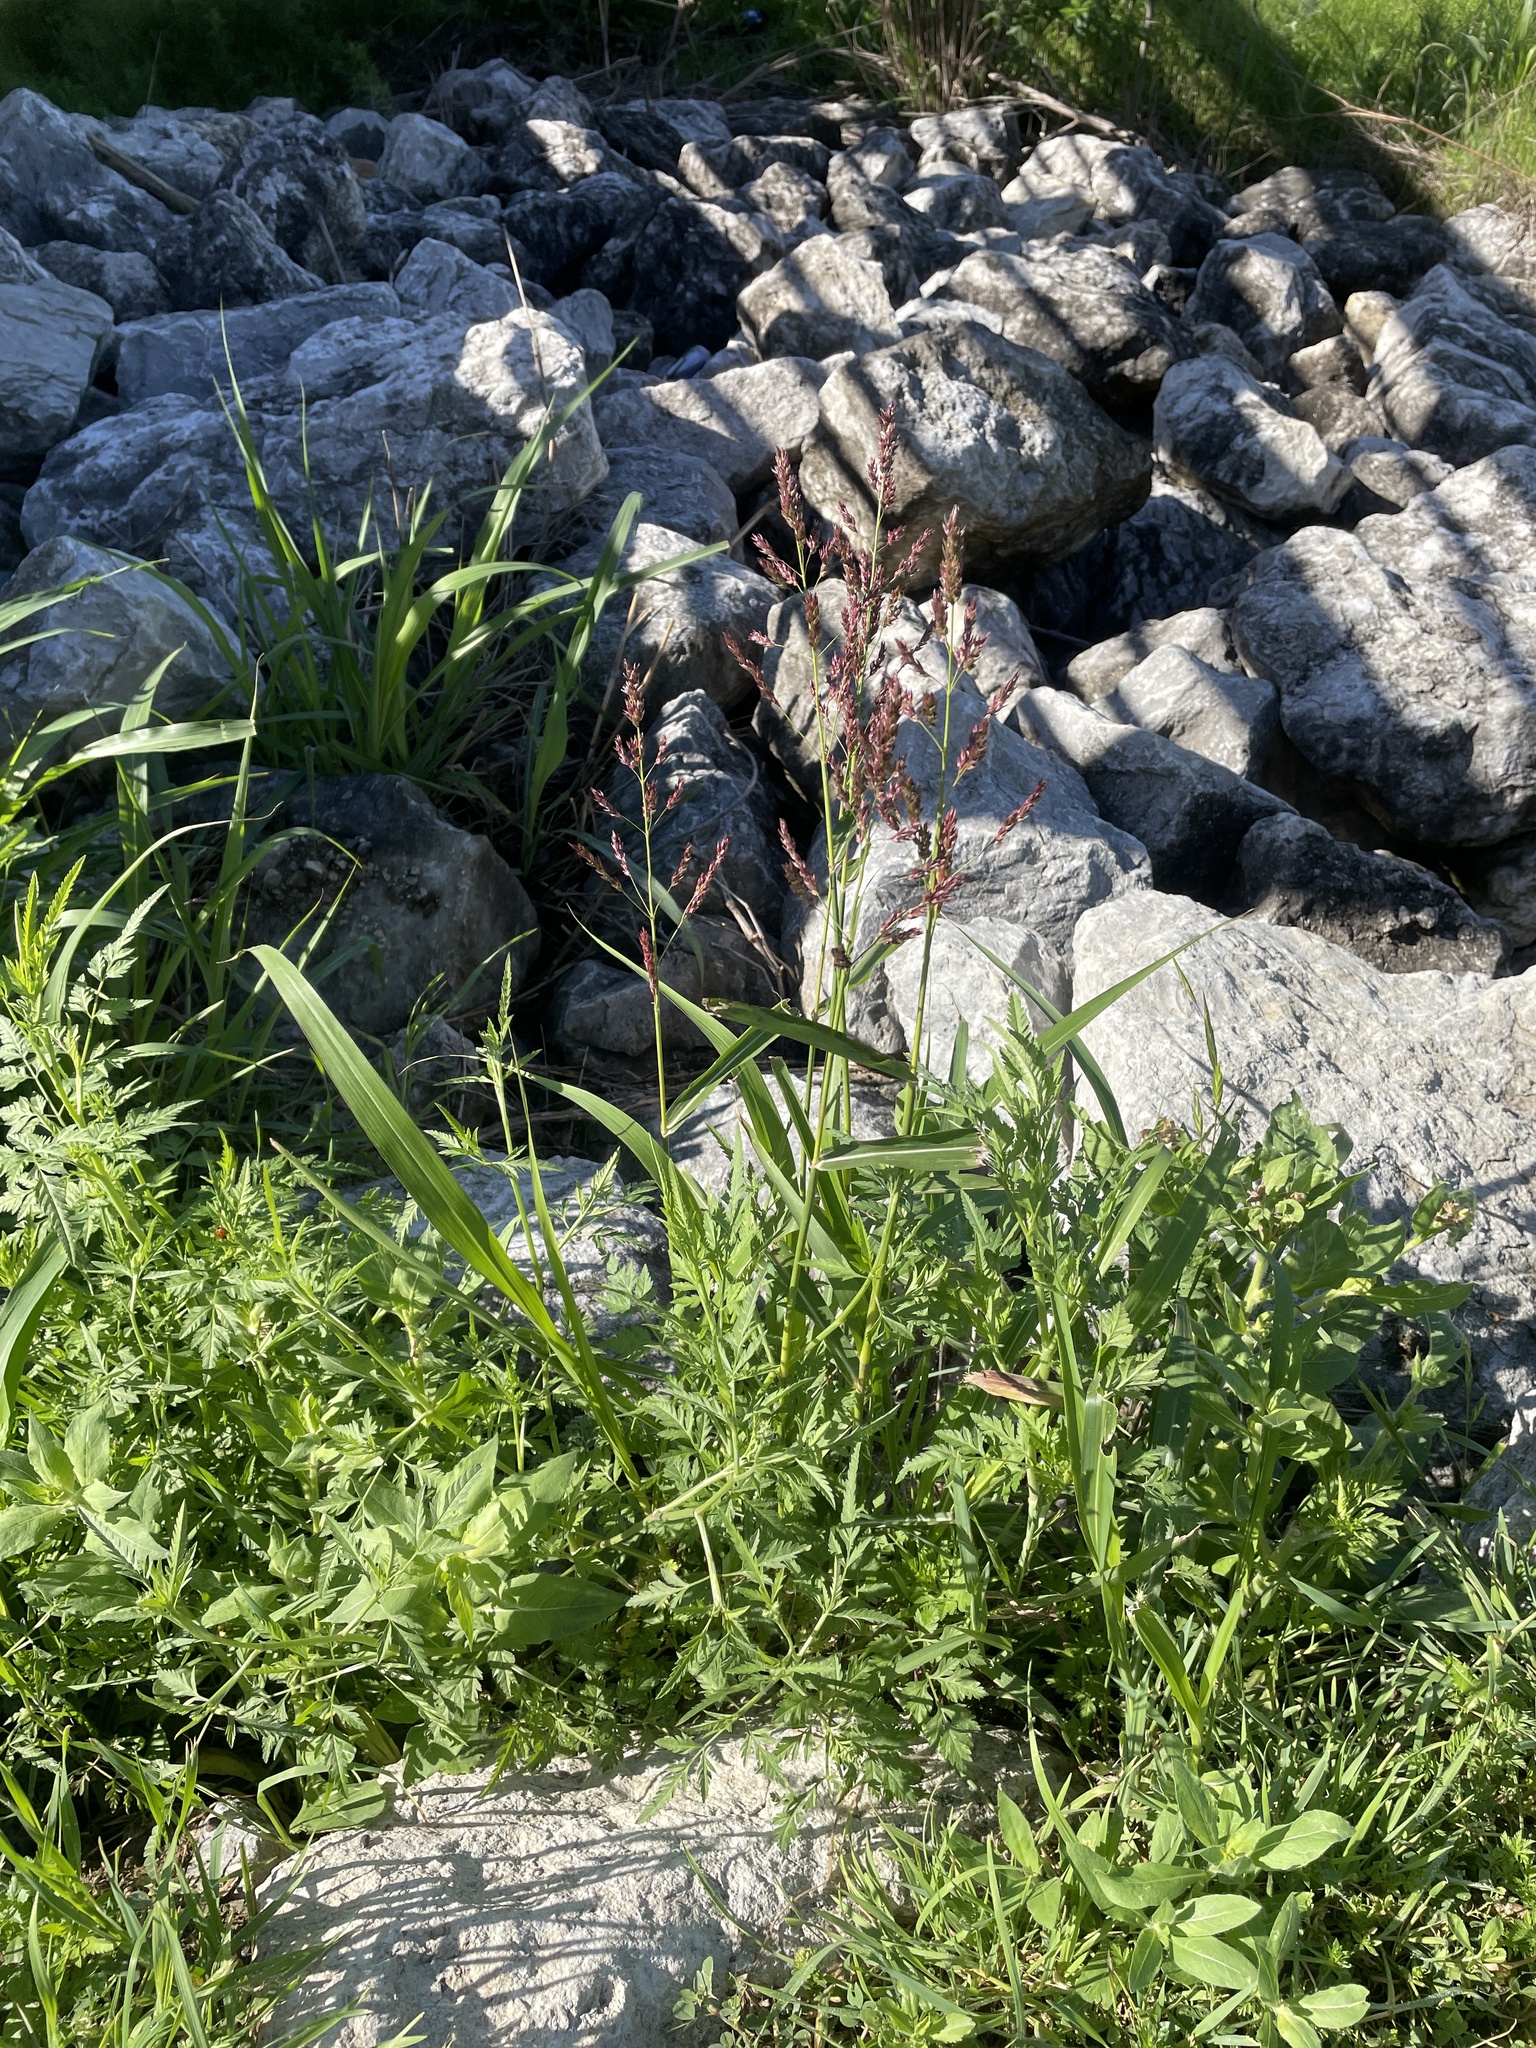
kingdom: Plantae
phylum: Tracheophyta
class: Liliopsida
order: Poales
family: Poaceae
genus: Sorghum
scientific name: Sorghum halepense
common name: Johnson-grass
